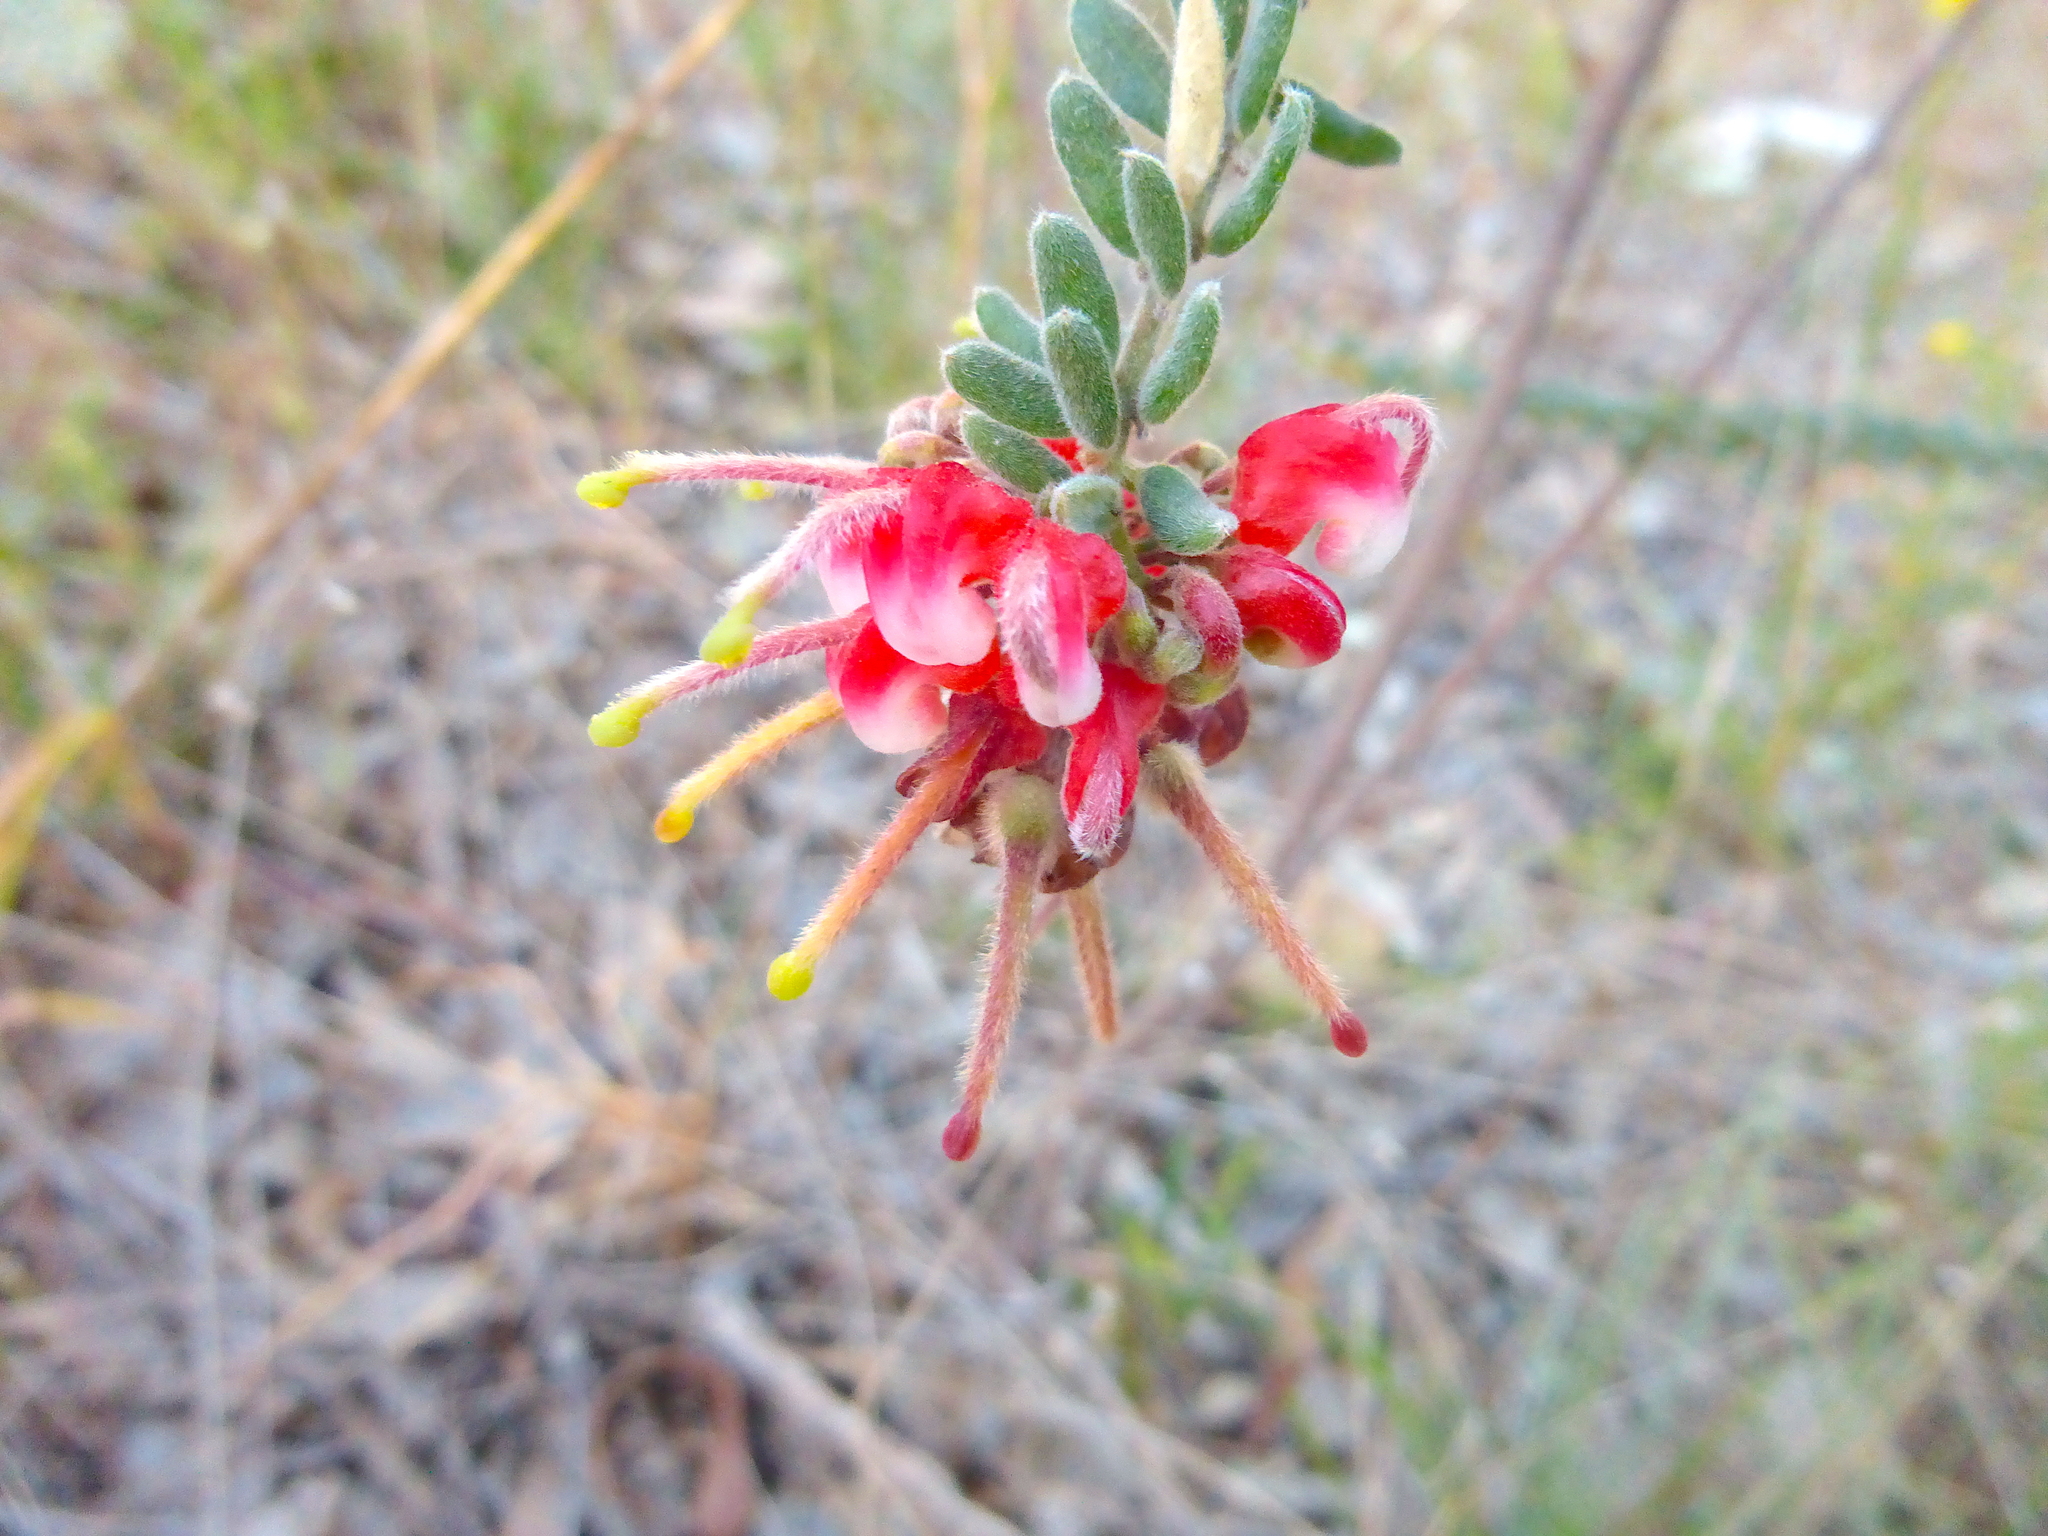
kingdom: Plantae
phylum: Tracheophyta
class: Magnoliopsida
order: Proteales
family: Proteaceae
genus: Grevillea
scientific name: Grevillea alpina
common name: Catclaws grevillea
